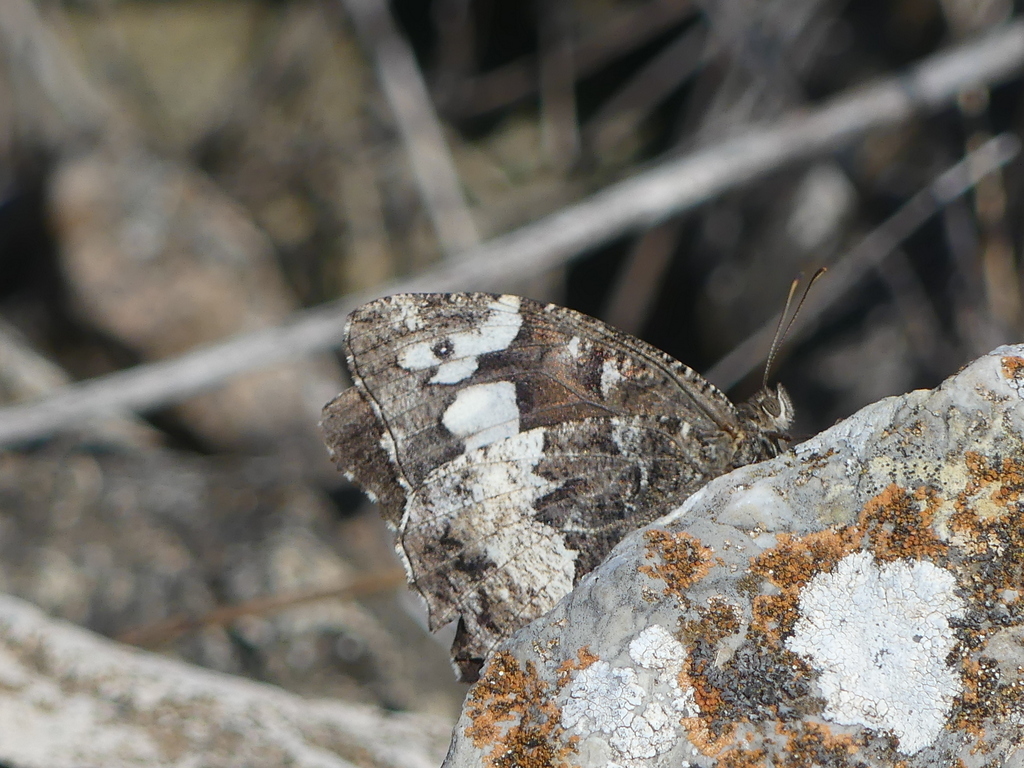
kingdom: Animalia
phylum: Arthropoda
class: Insecta
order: Lepidoptera
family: Lycaenidae
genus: Loweia
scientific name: Loweia tityrus
